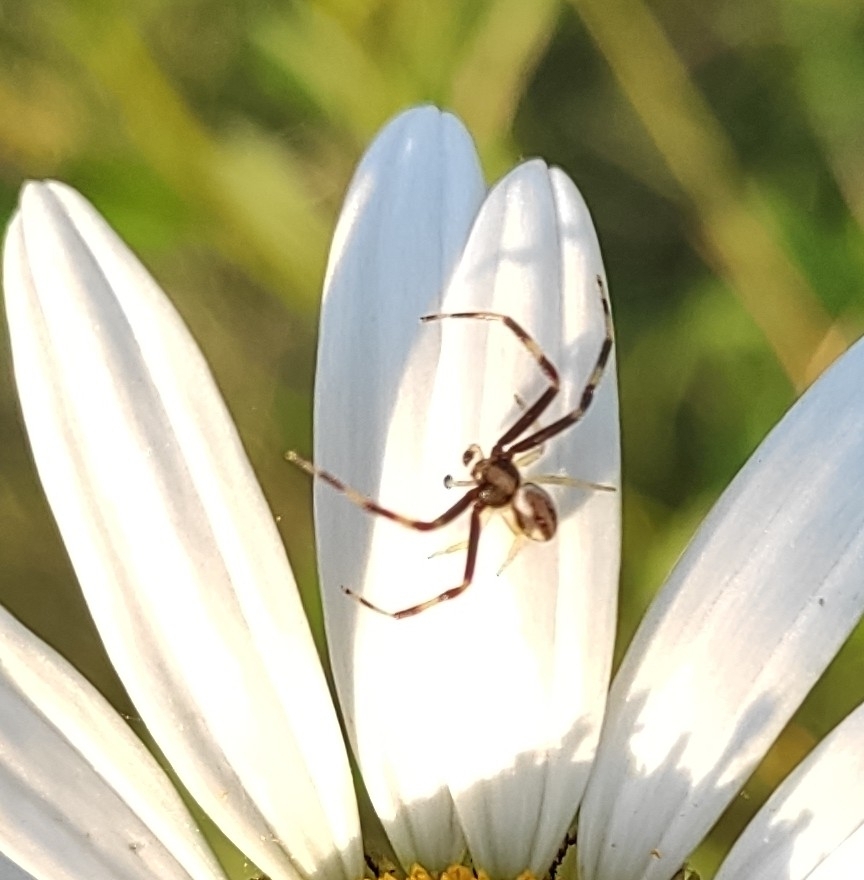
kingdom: Animalia
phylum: Arthropoda
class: Arachnida
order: Araneae
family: Thomisidae
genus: Misumena
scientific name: Misumena vatia
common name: Goldenrod crab spider
